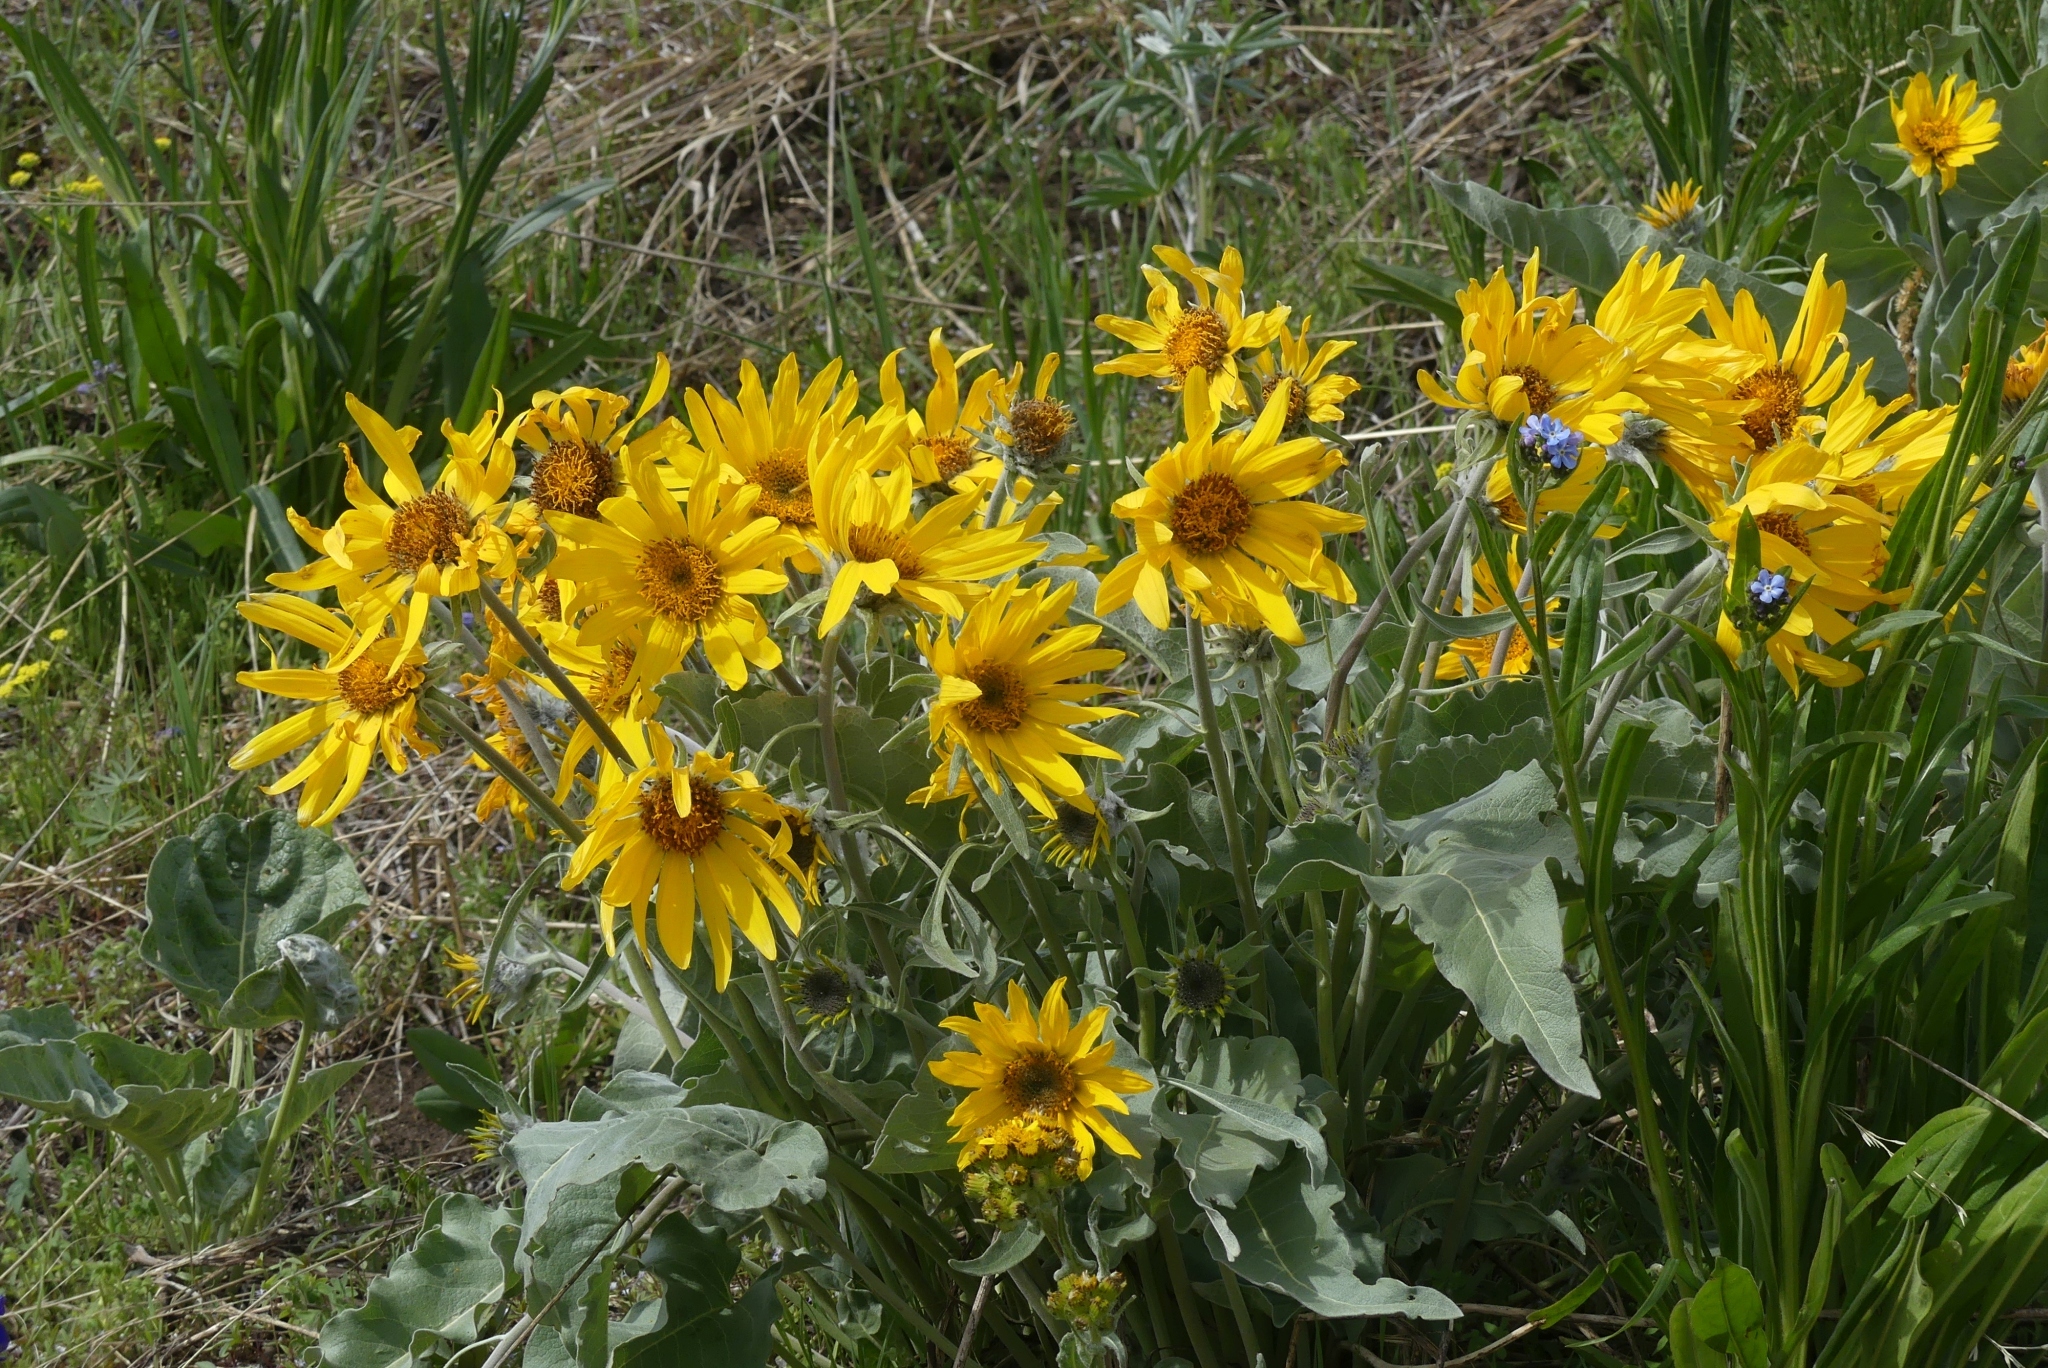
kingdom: Plantae
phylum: Tracheophyta
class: Magnoliopsida
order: Asterales
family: Asteraceae
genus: Wyethia
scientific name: Wyethia sagittata
